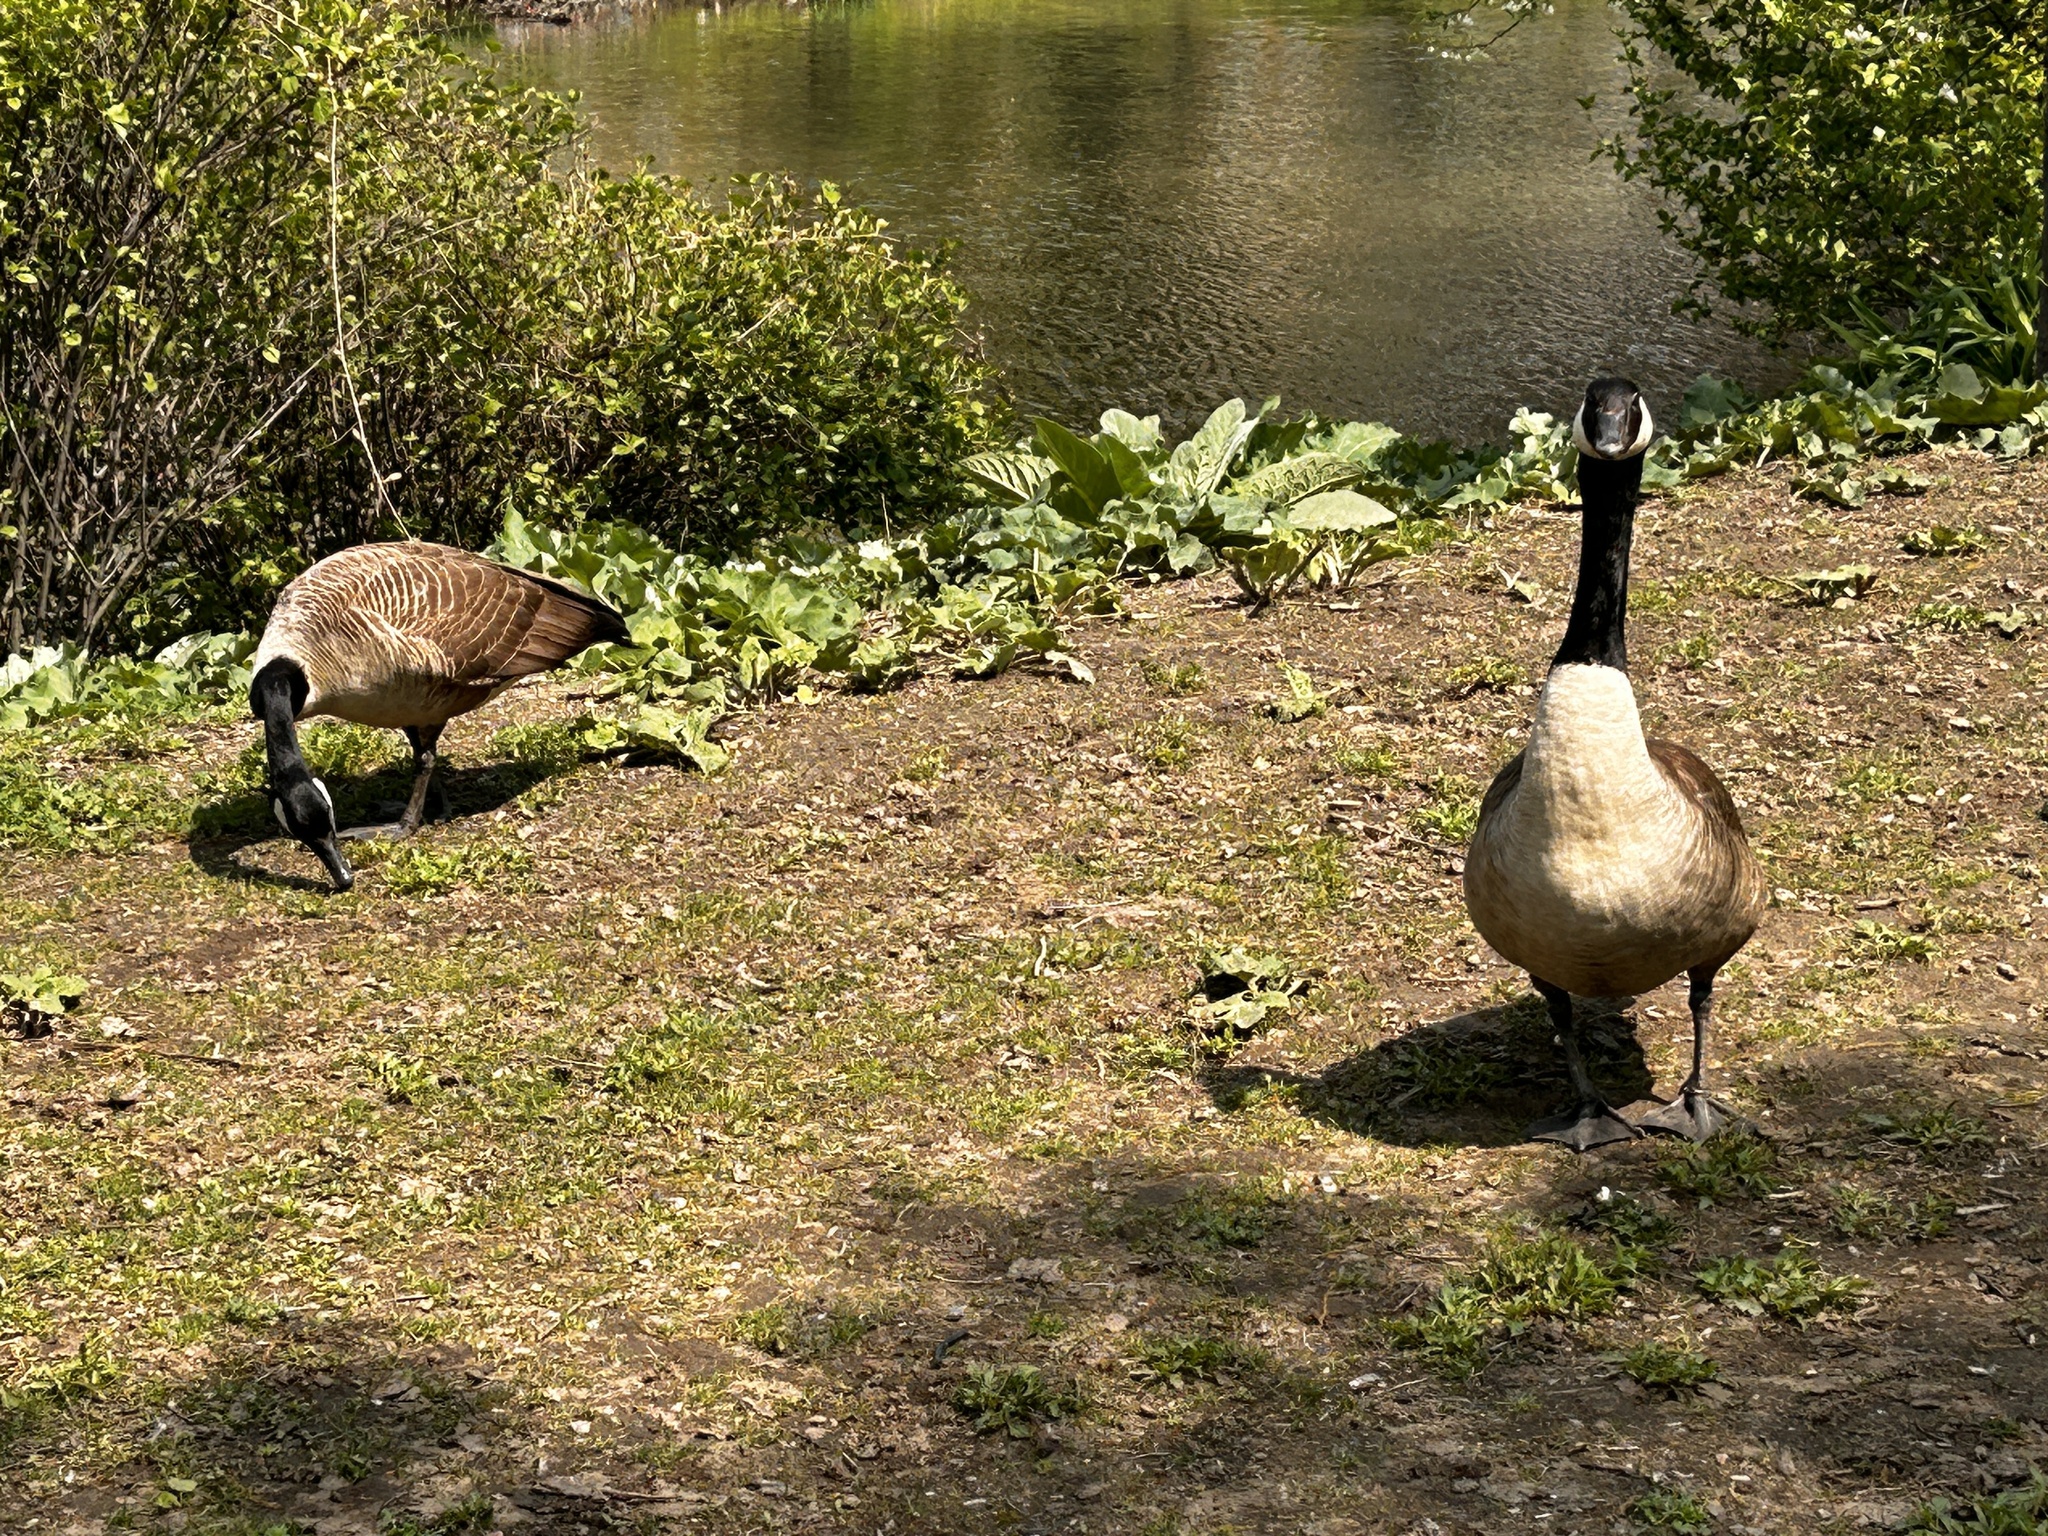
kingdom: Animalia
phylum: Chordata
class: Aves
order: Anseriformes
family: Anatidae
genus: Branta
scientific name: Branta canadensis
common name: Canada goose
